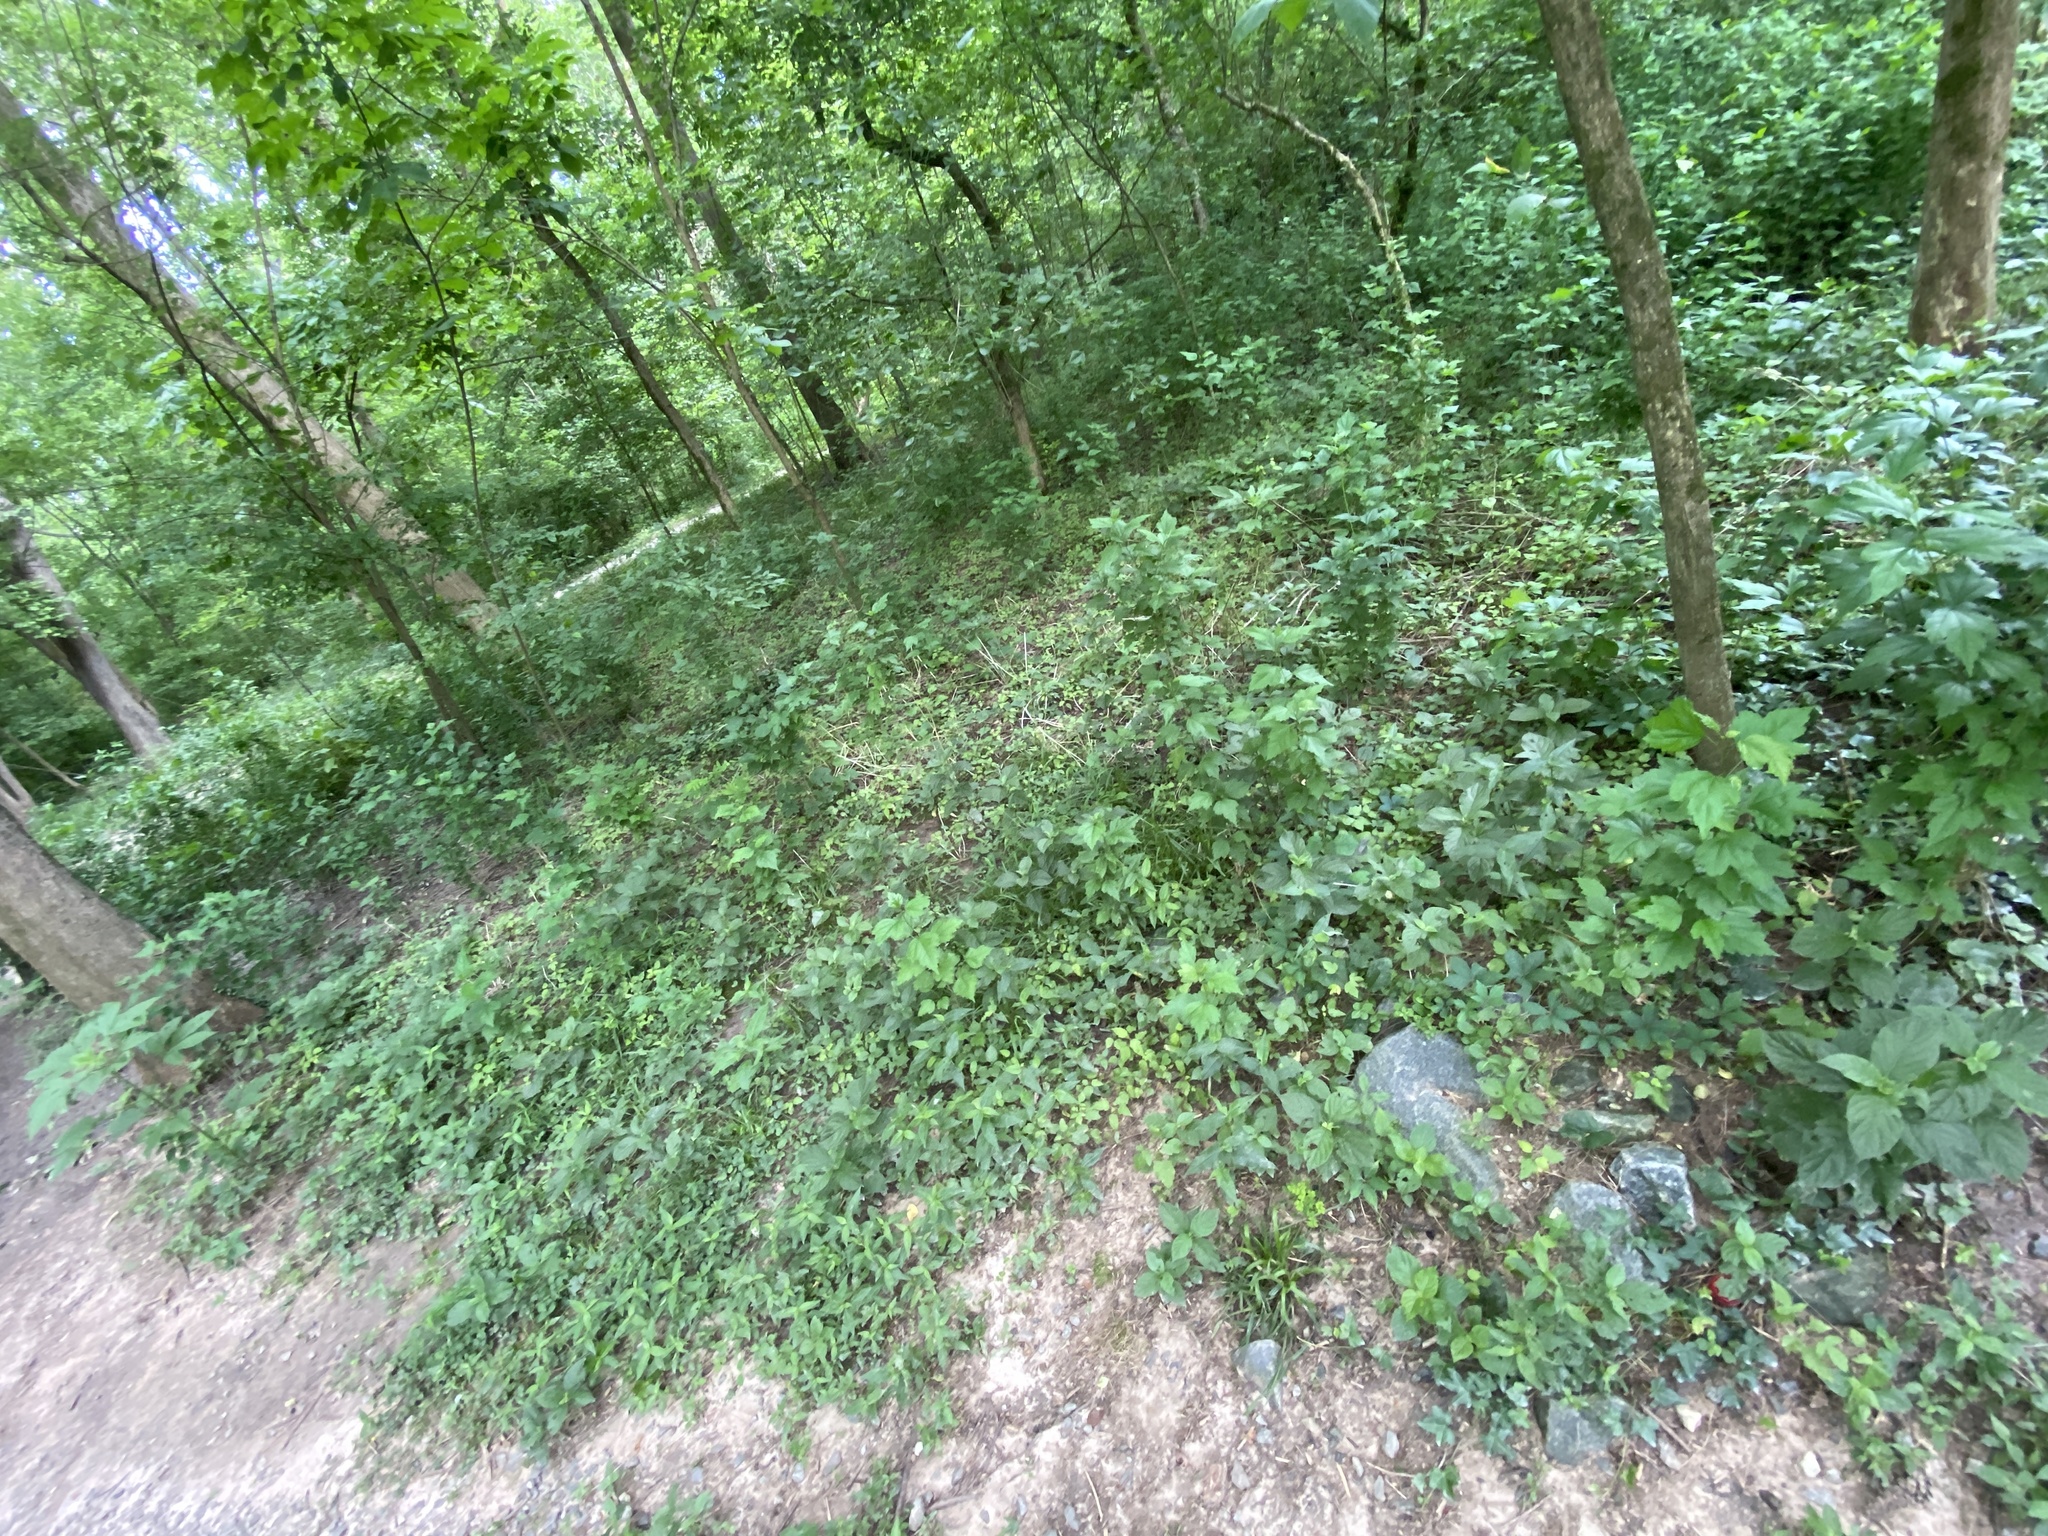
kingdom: Plantae
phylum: Tracheophyta
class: Magnoliopsida
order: Caryophyllales
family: Amaranthaceae
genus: Achyranthes
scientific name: Achyranthes bidentata
